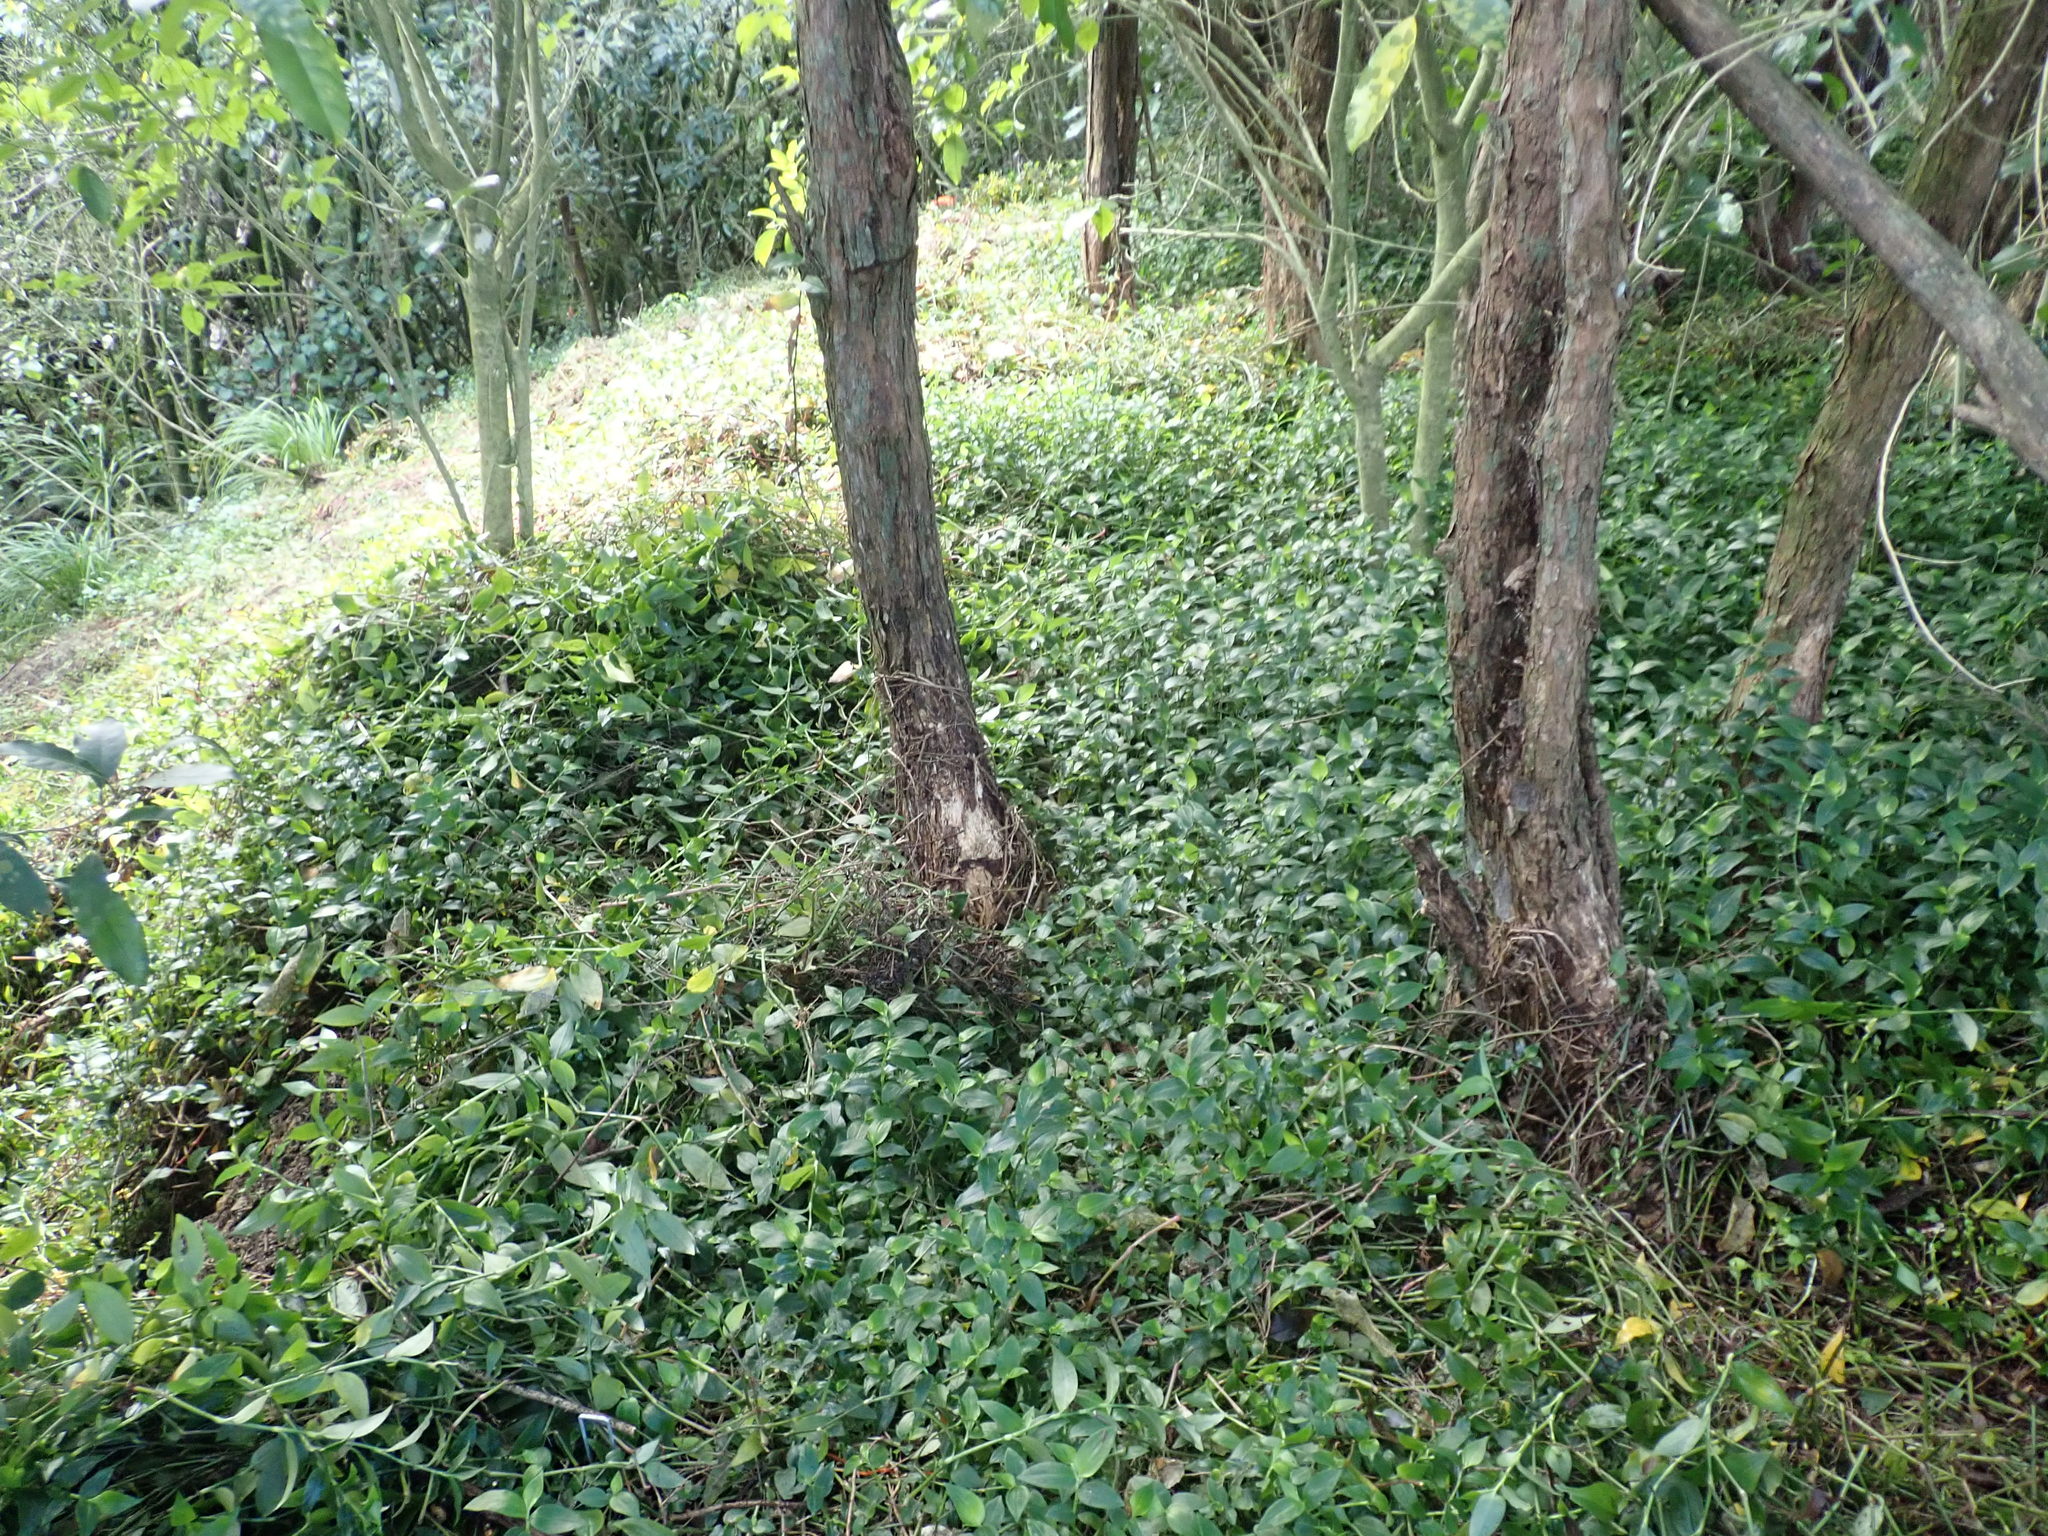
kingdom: Plantae
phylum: Tracheophyta
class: Liliopsida
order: Commelinales
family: Commelinaceae
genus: Tradescantia
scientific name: Tradescantia fluminensis
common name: Wandering-jew
